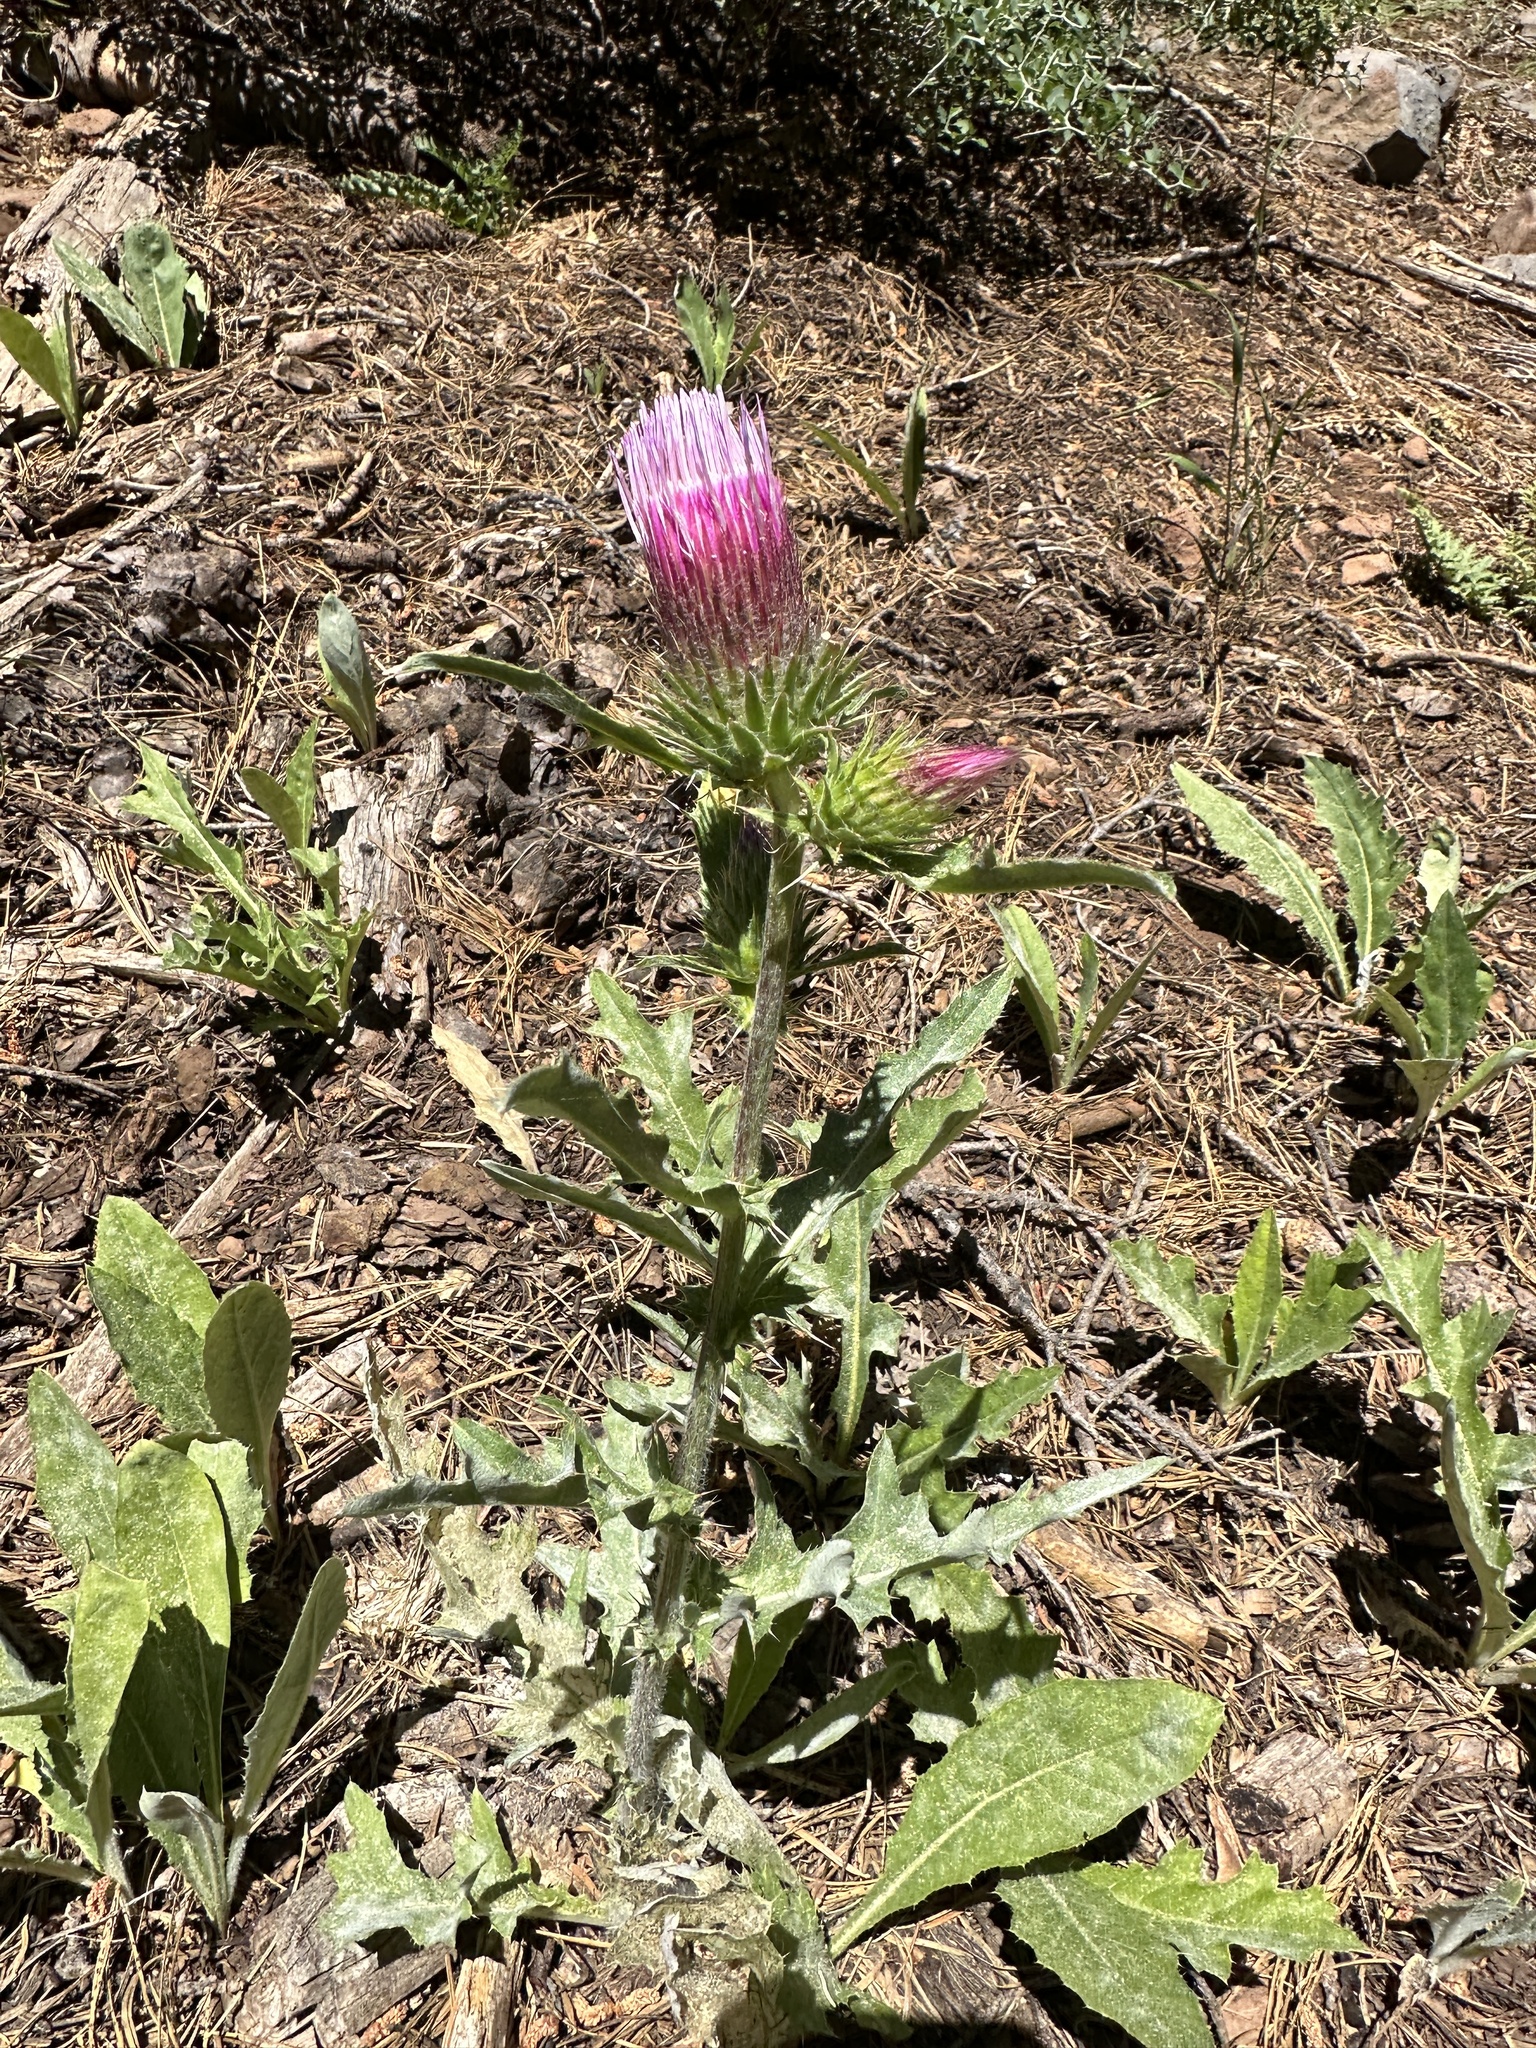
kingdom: Plantae
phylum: Tracheophyta
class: Magnoliopsida
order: Asterales
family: Asteraceae
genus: Cirsium
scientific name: Cirsium andersonii
